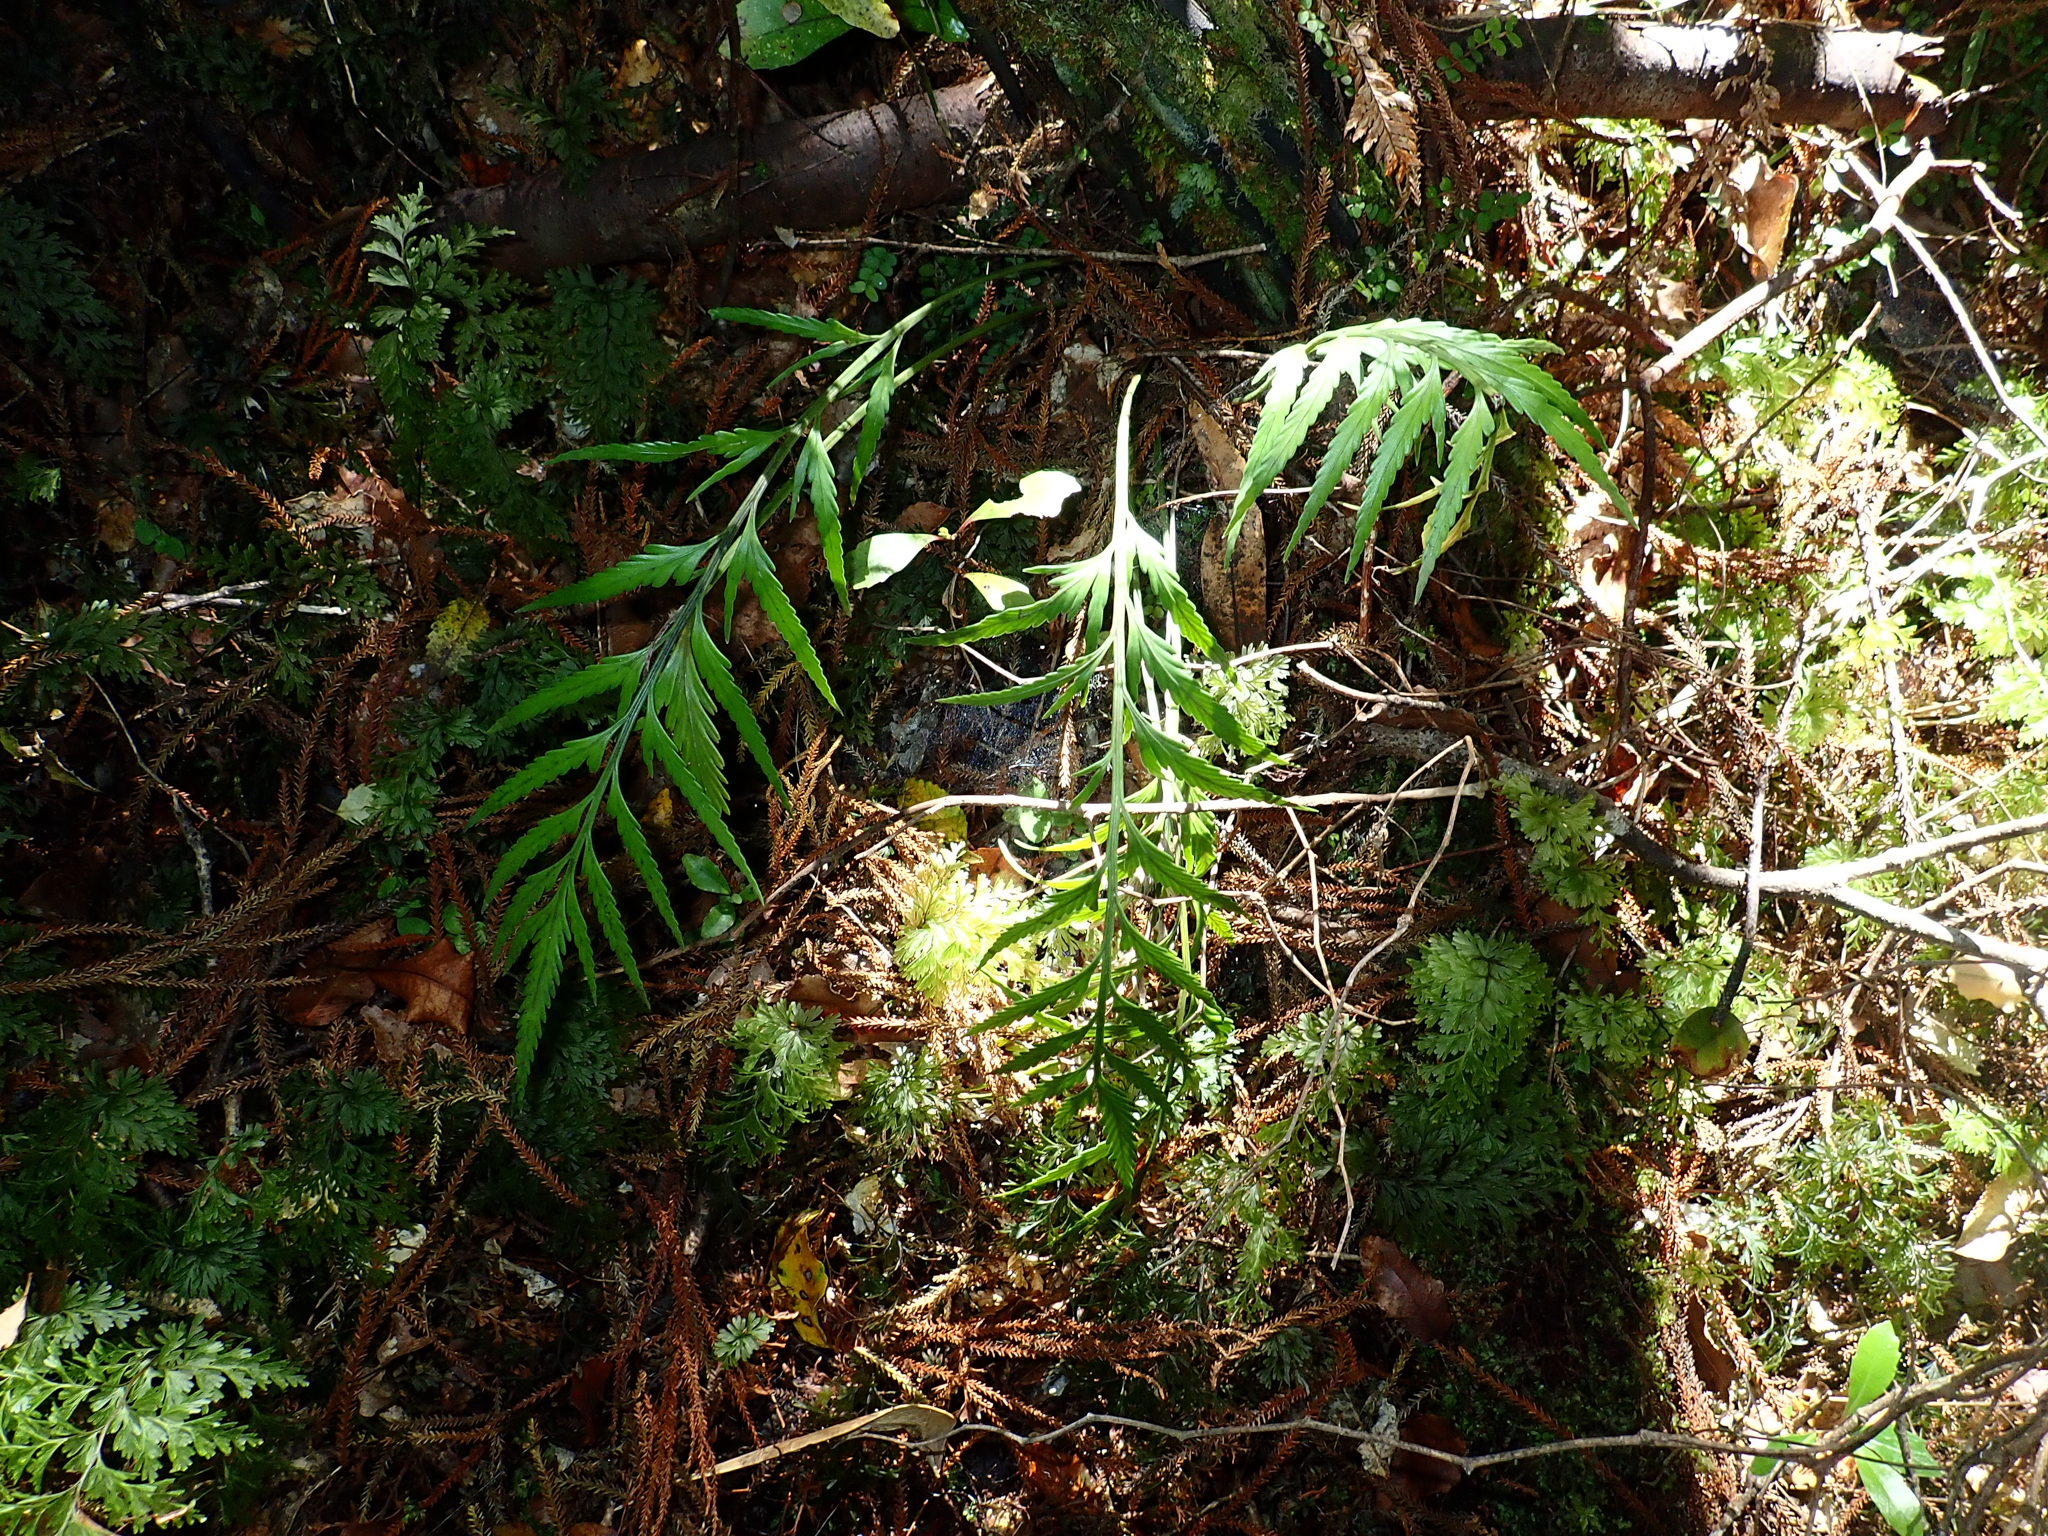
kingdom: Plantae
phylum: Tracheophyta
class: Polypodiopsida
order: Polypodiales
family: Aspleniaceae
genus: Asplenium
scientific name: Asplenium flaccidum
